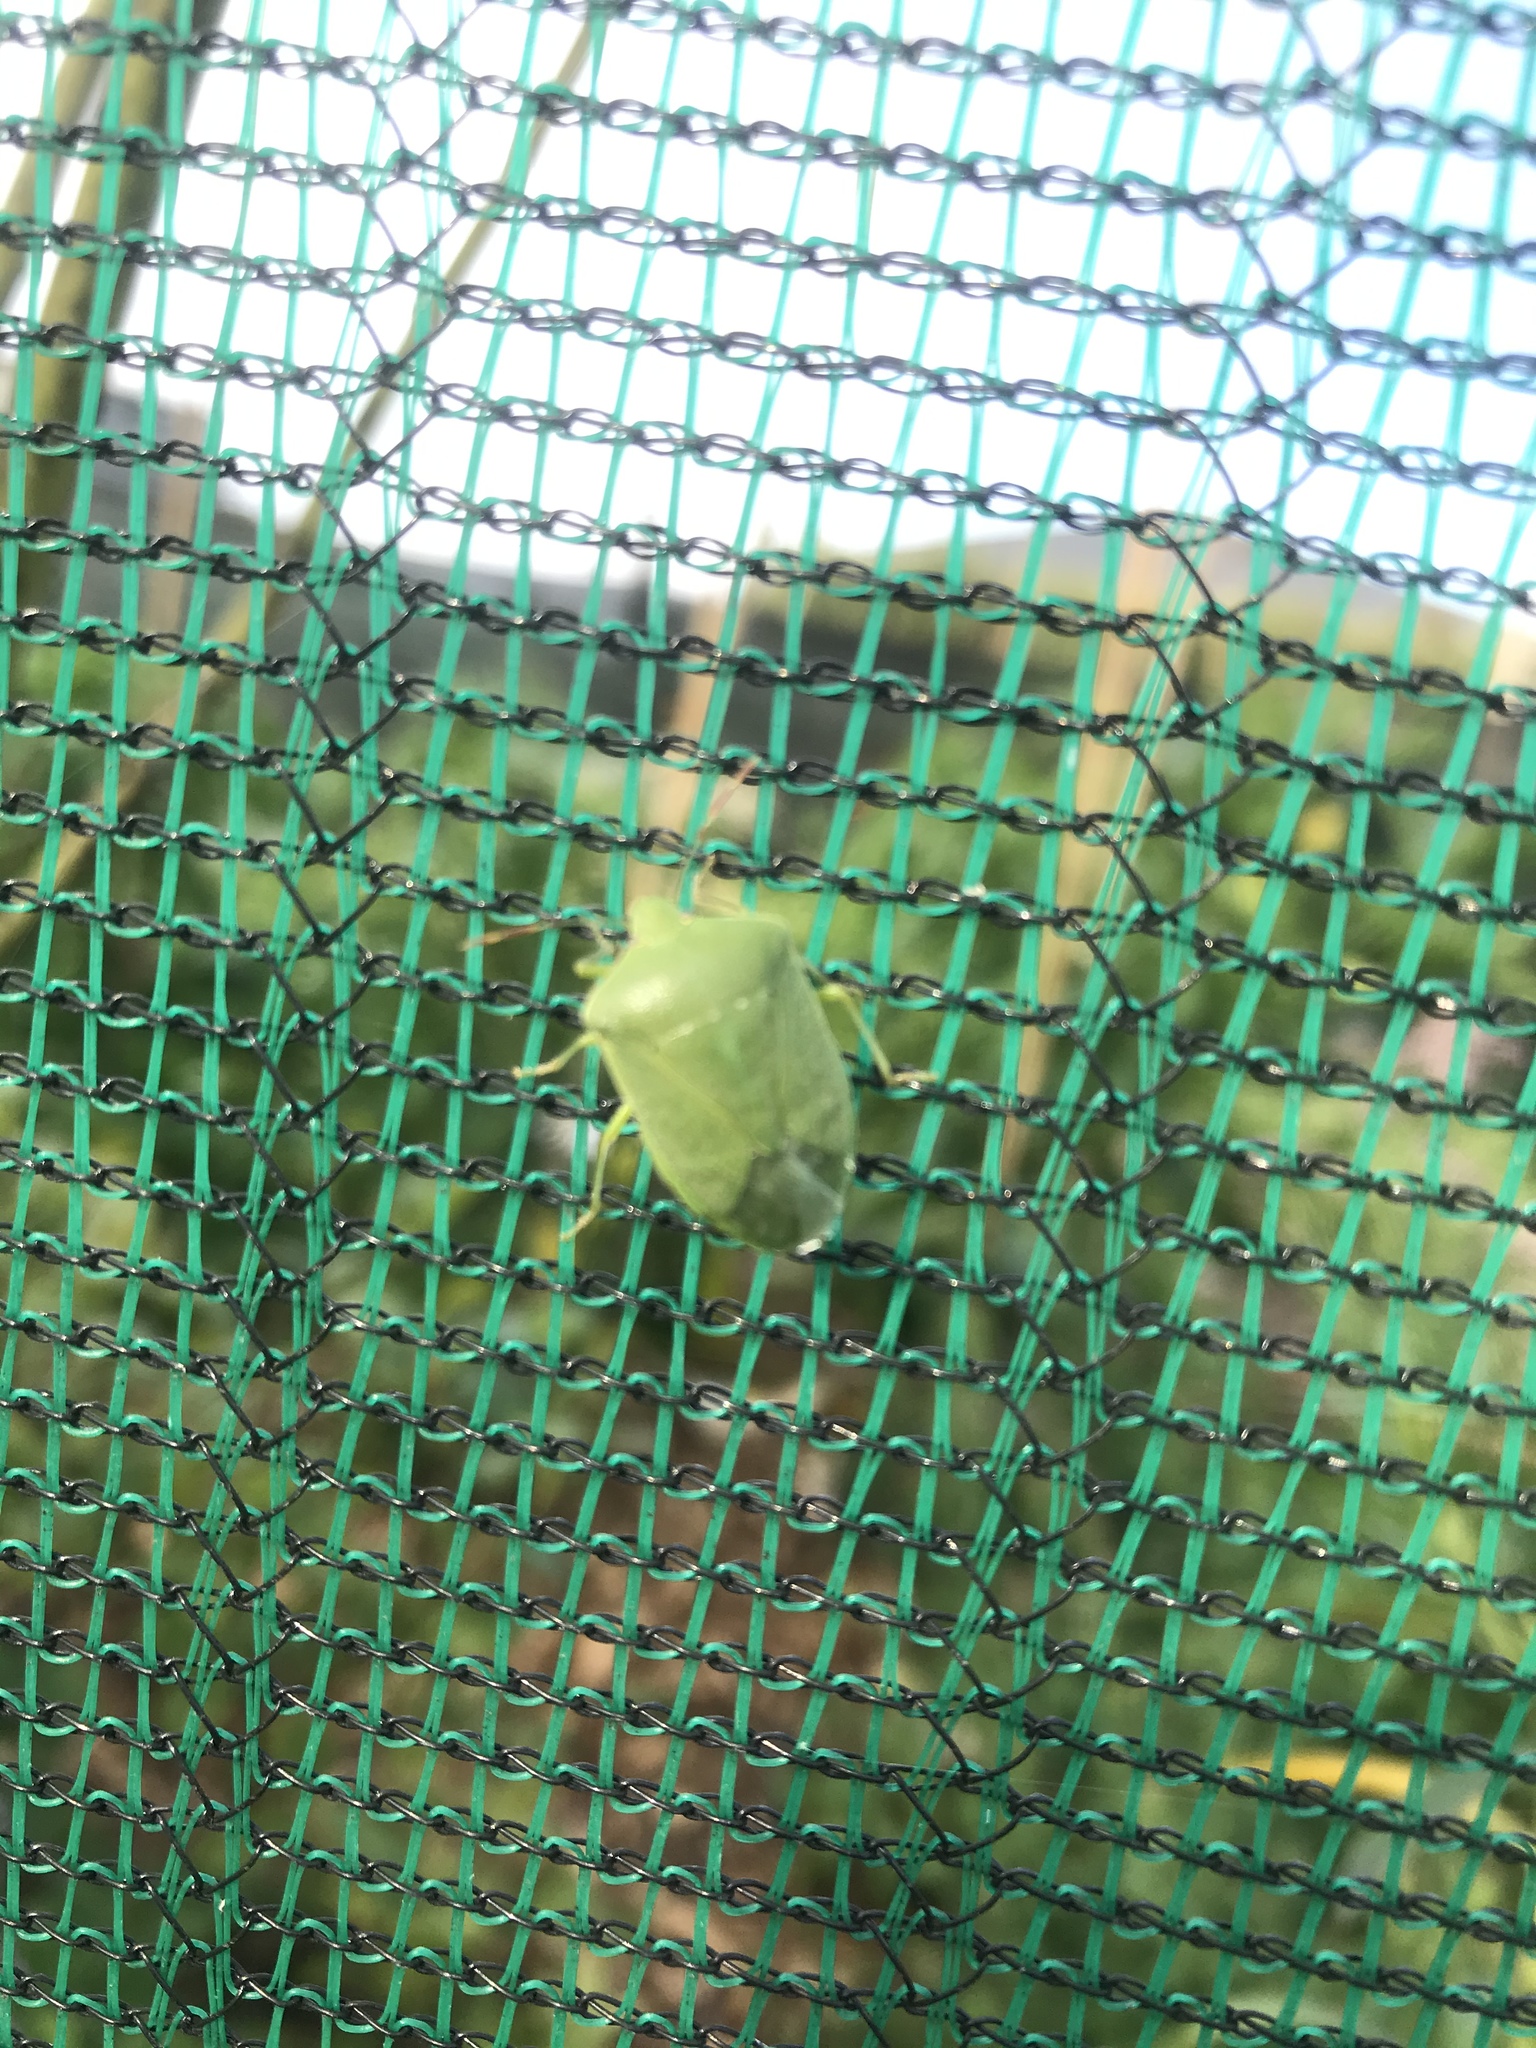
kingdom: Animalia
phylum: Arthropoda
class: Insecta
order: Hemiptera
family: Pentatomidae
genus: Nezara
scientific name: Nezara viridula
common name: Southern green stink bug
